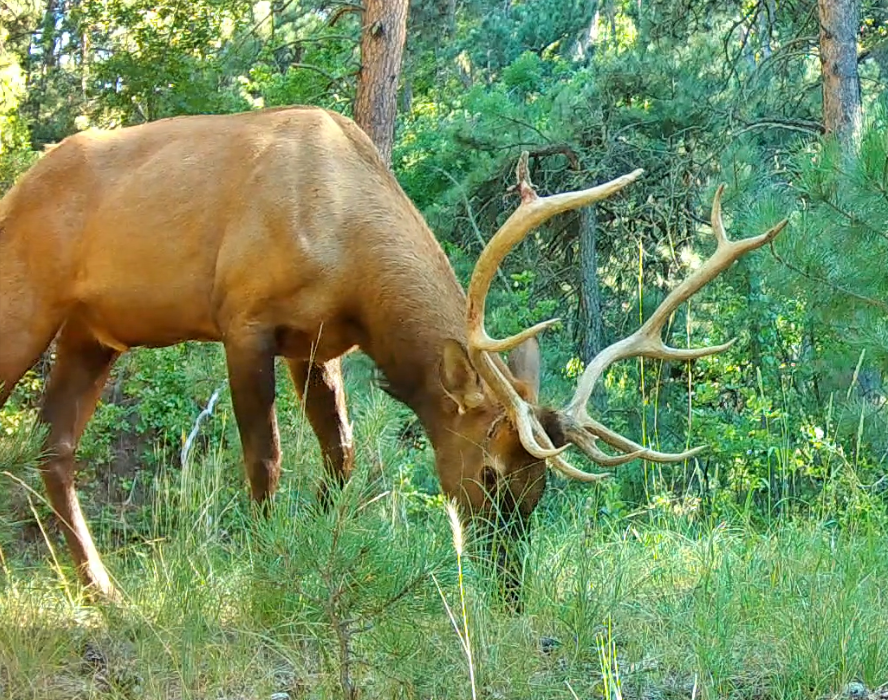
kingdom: Animalia
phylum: Chordata
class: Mammalia
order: Artiodactyla
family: Cervidae
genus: Cervus
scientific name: Cervus elaphus
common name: Red deer
